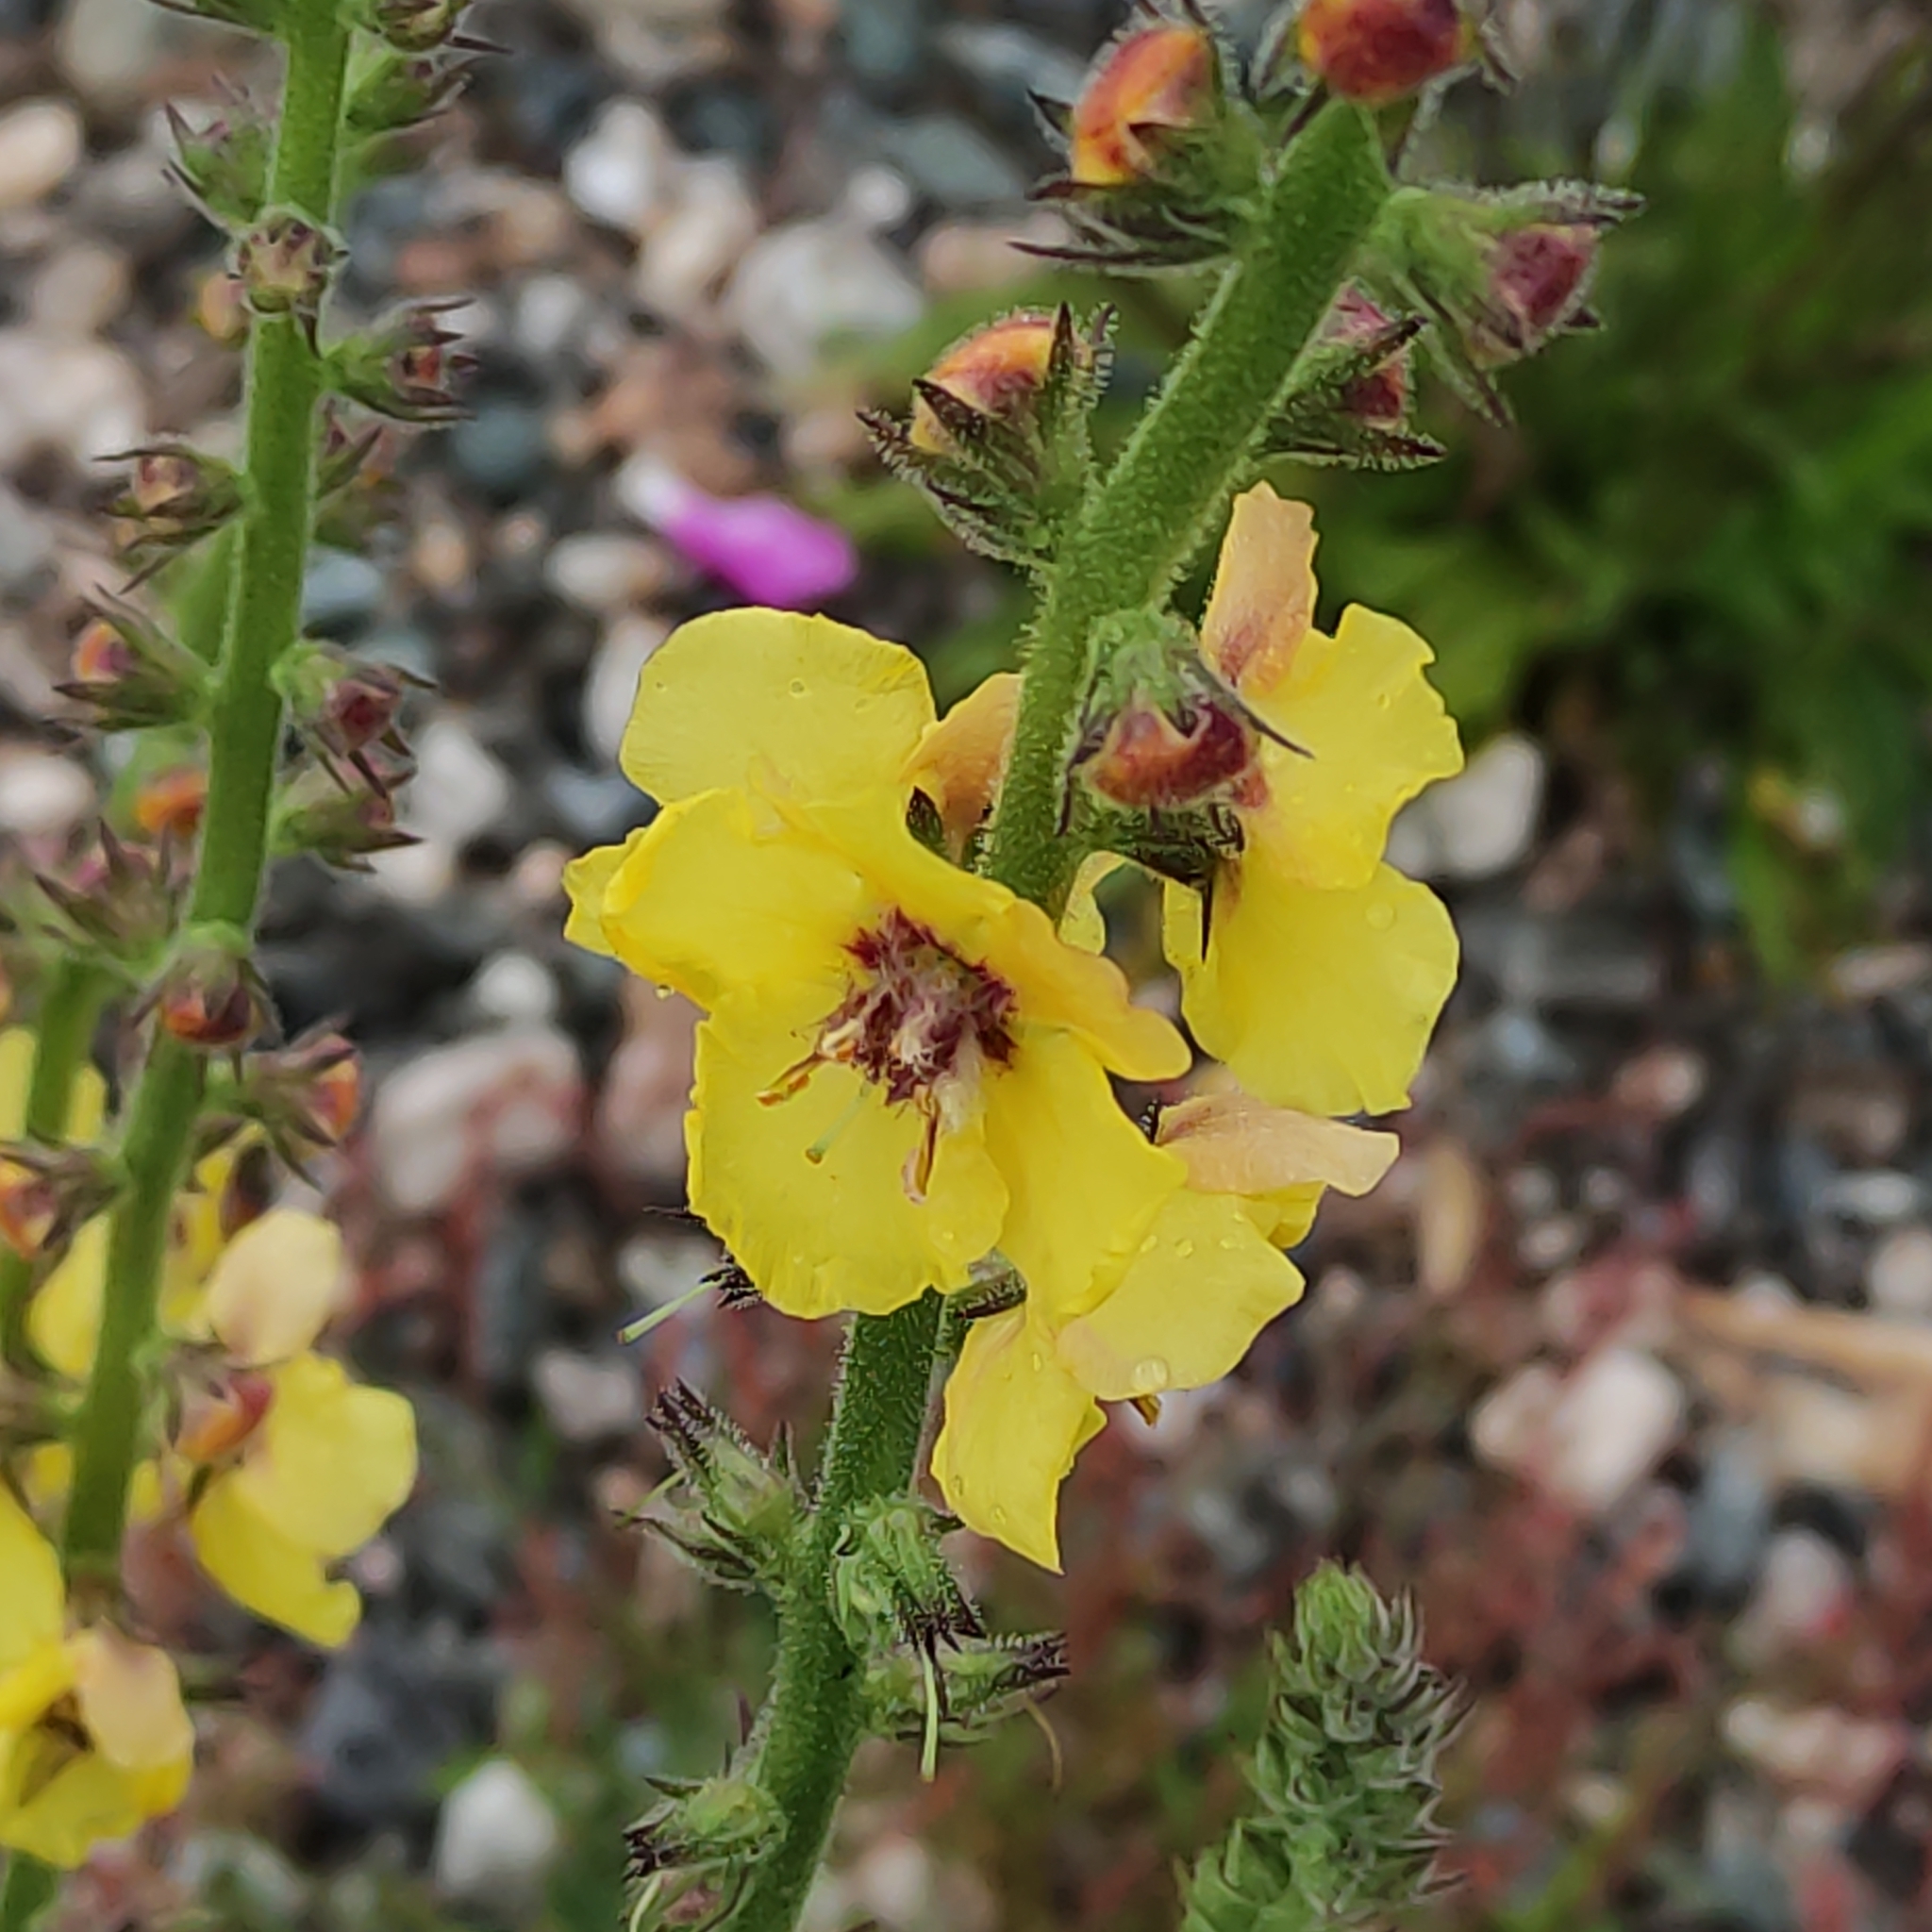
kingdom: Plantae
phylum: Tracheophyta
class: Magnoliopsida
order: Lamiales
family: Scrophulariaceae
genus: Verbascum
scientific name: Verbascum virgatum
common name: Twiggy mullein
